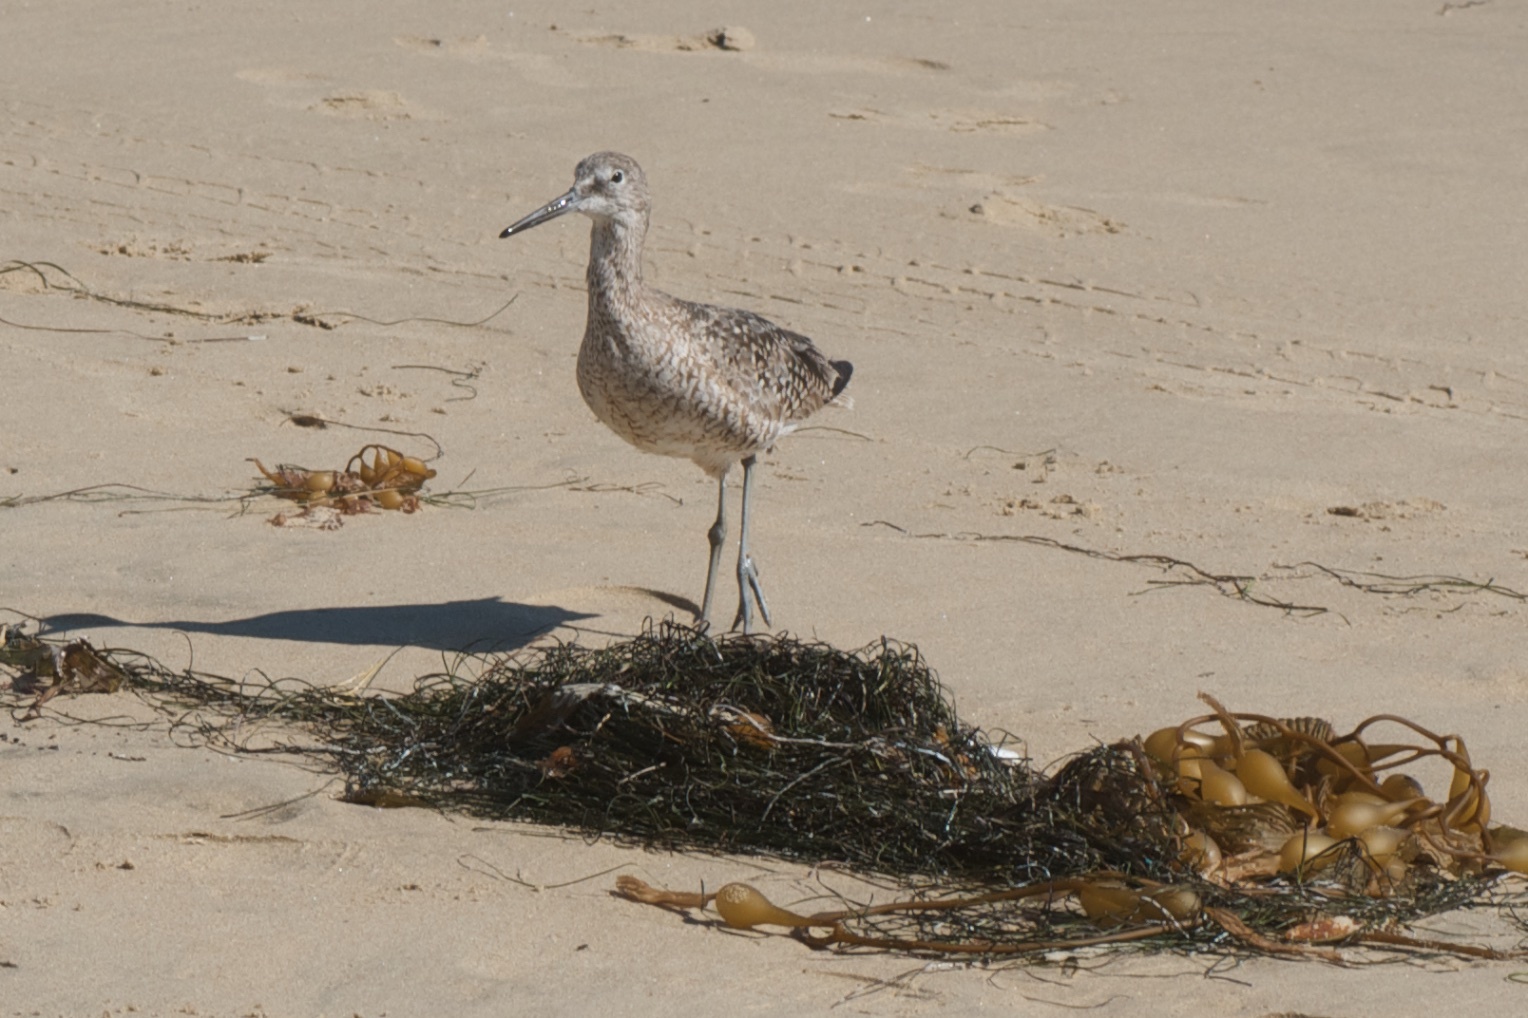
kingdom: Animalia
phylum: Chordata
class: Aves
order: Charadriiformes
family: Scolopacidae
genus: Tringa
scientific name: Tringa semipalmata
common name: Willet
